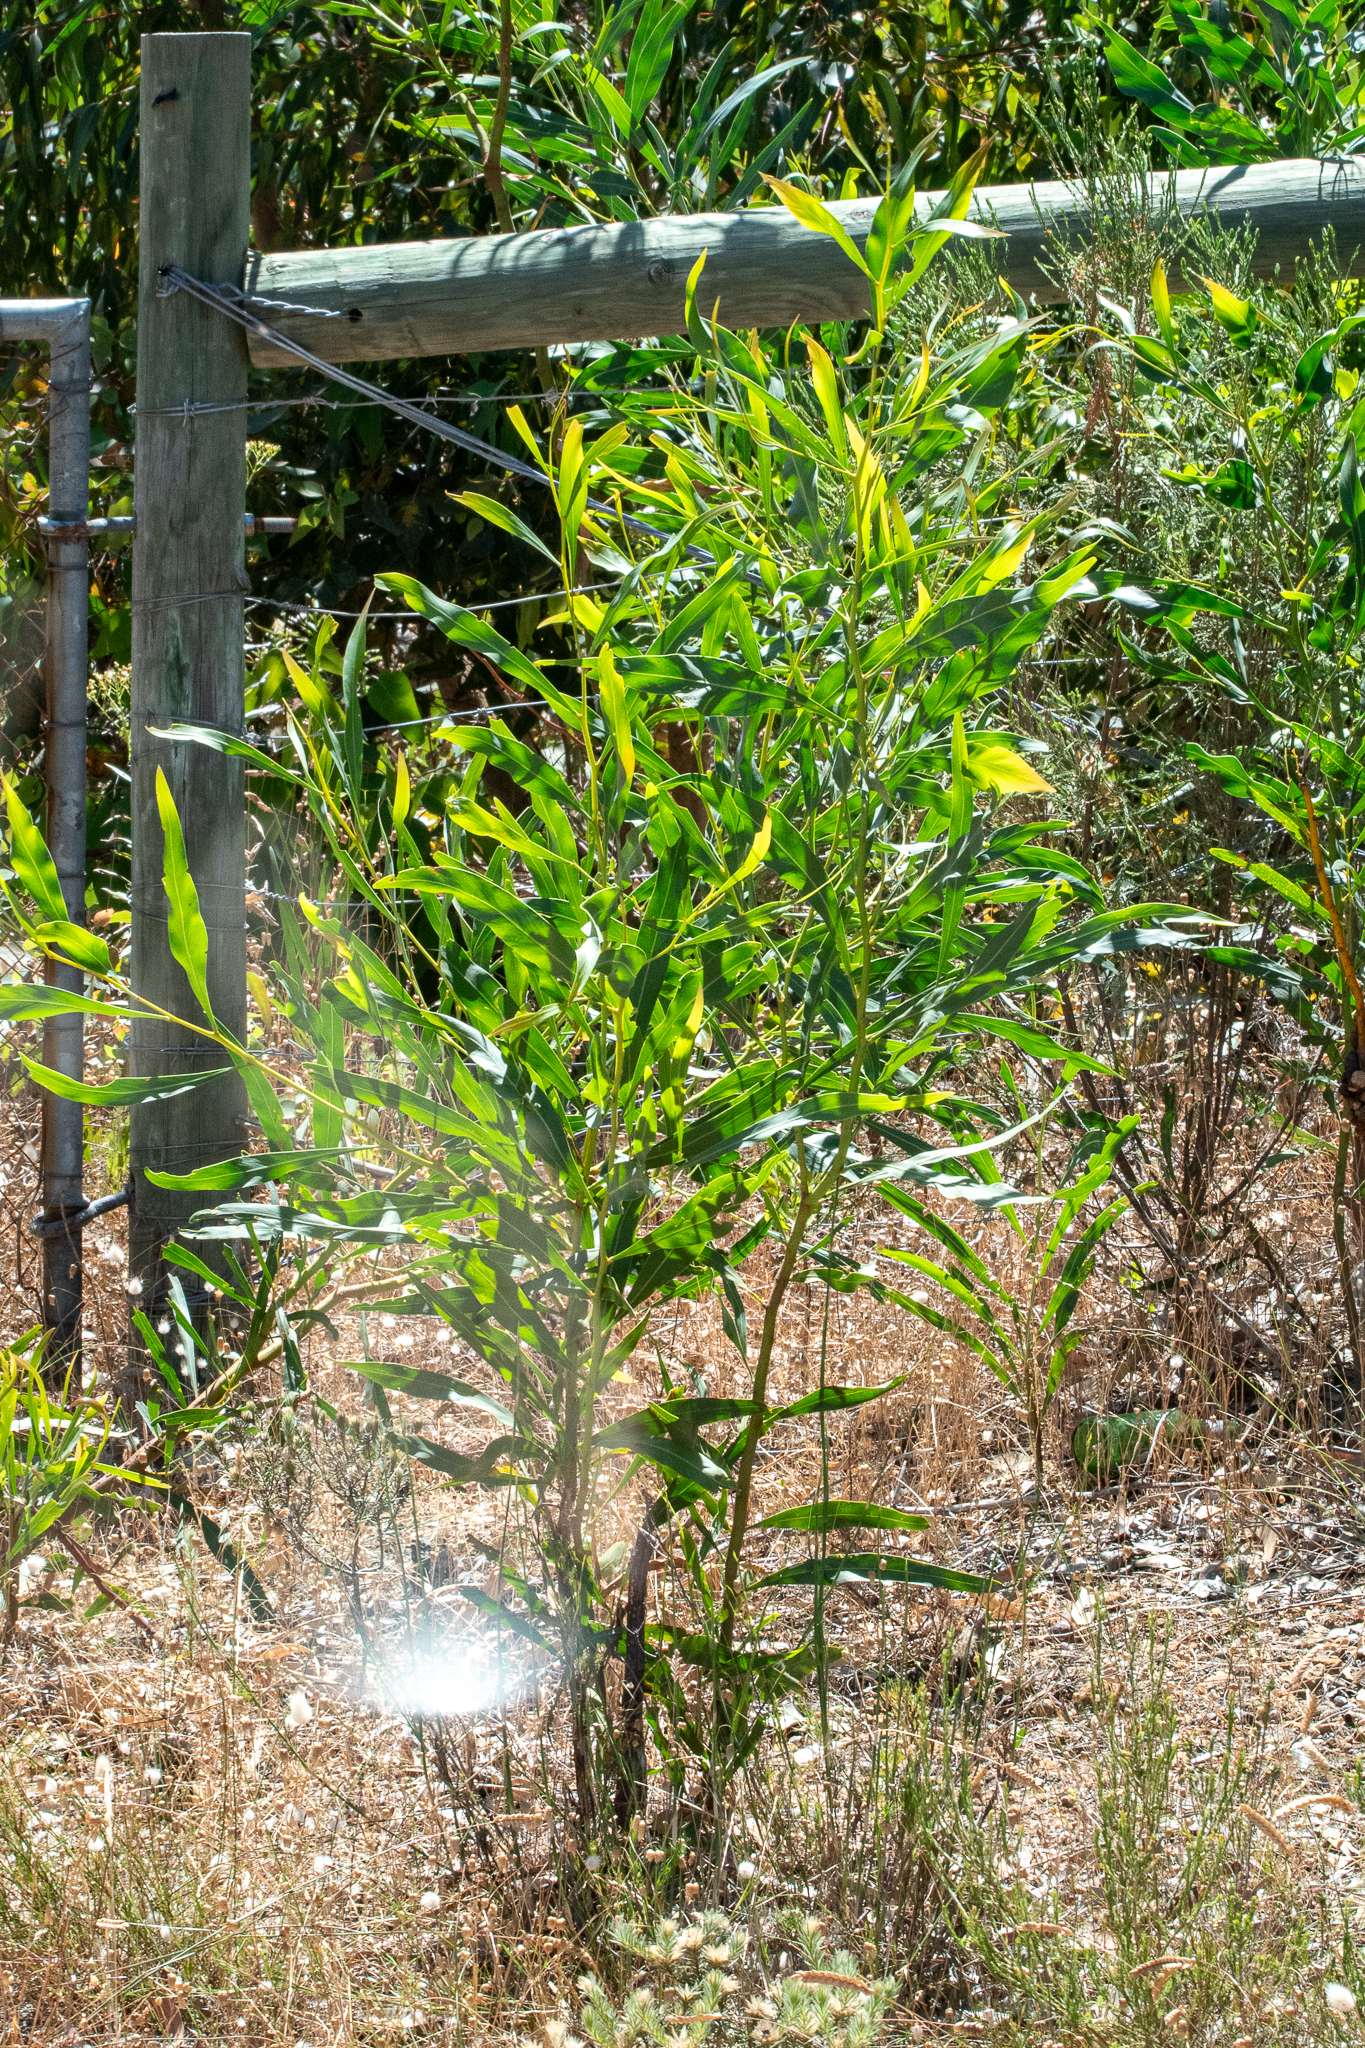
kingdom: Plantae
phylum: Tracheophyta
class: Magnoliopsida
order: Fabales
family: Fabaceae
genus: Acacia
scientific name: Acacia saligna
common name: Orange wattle
